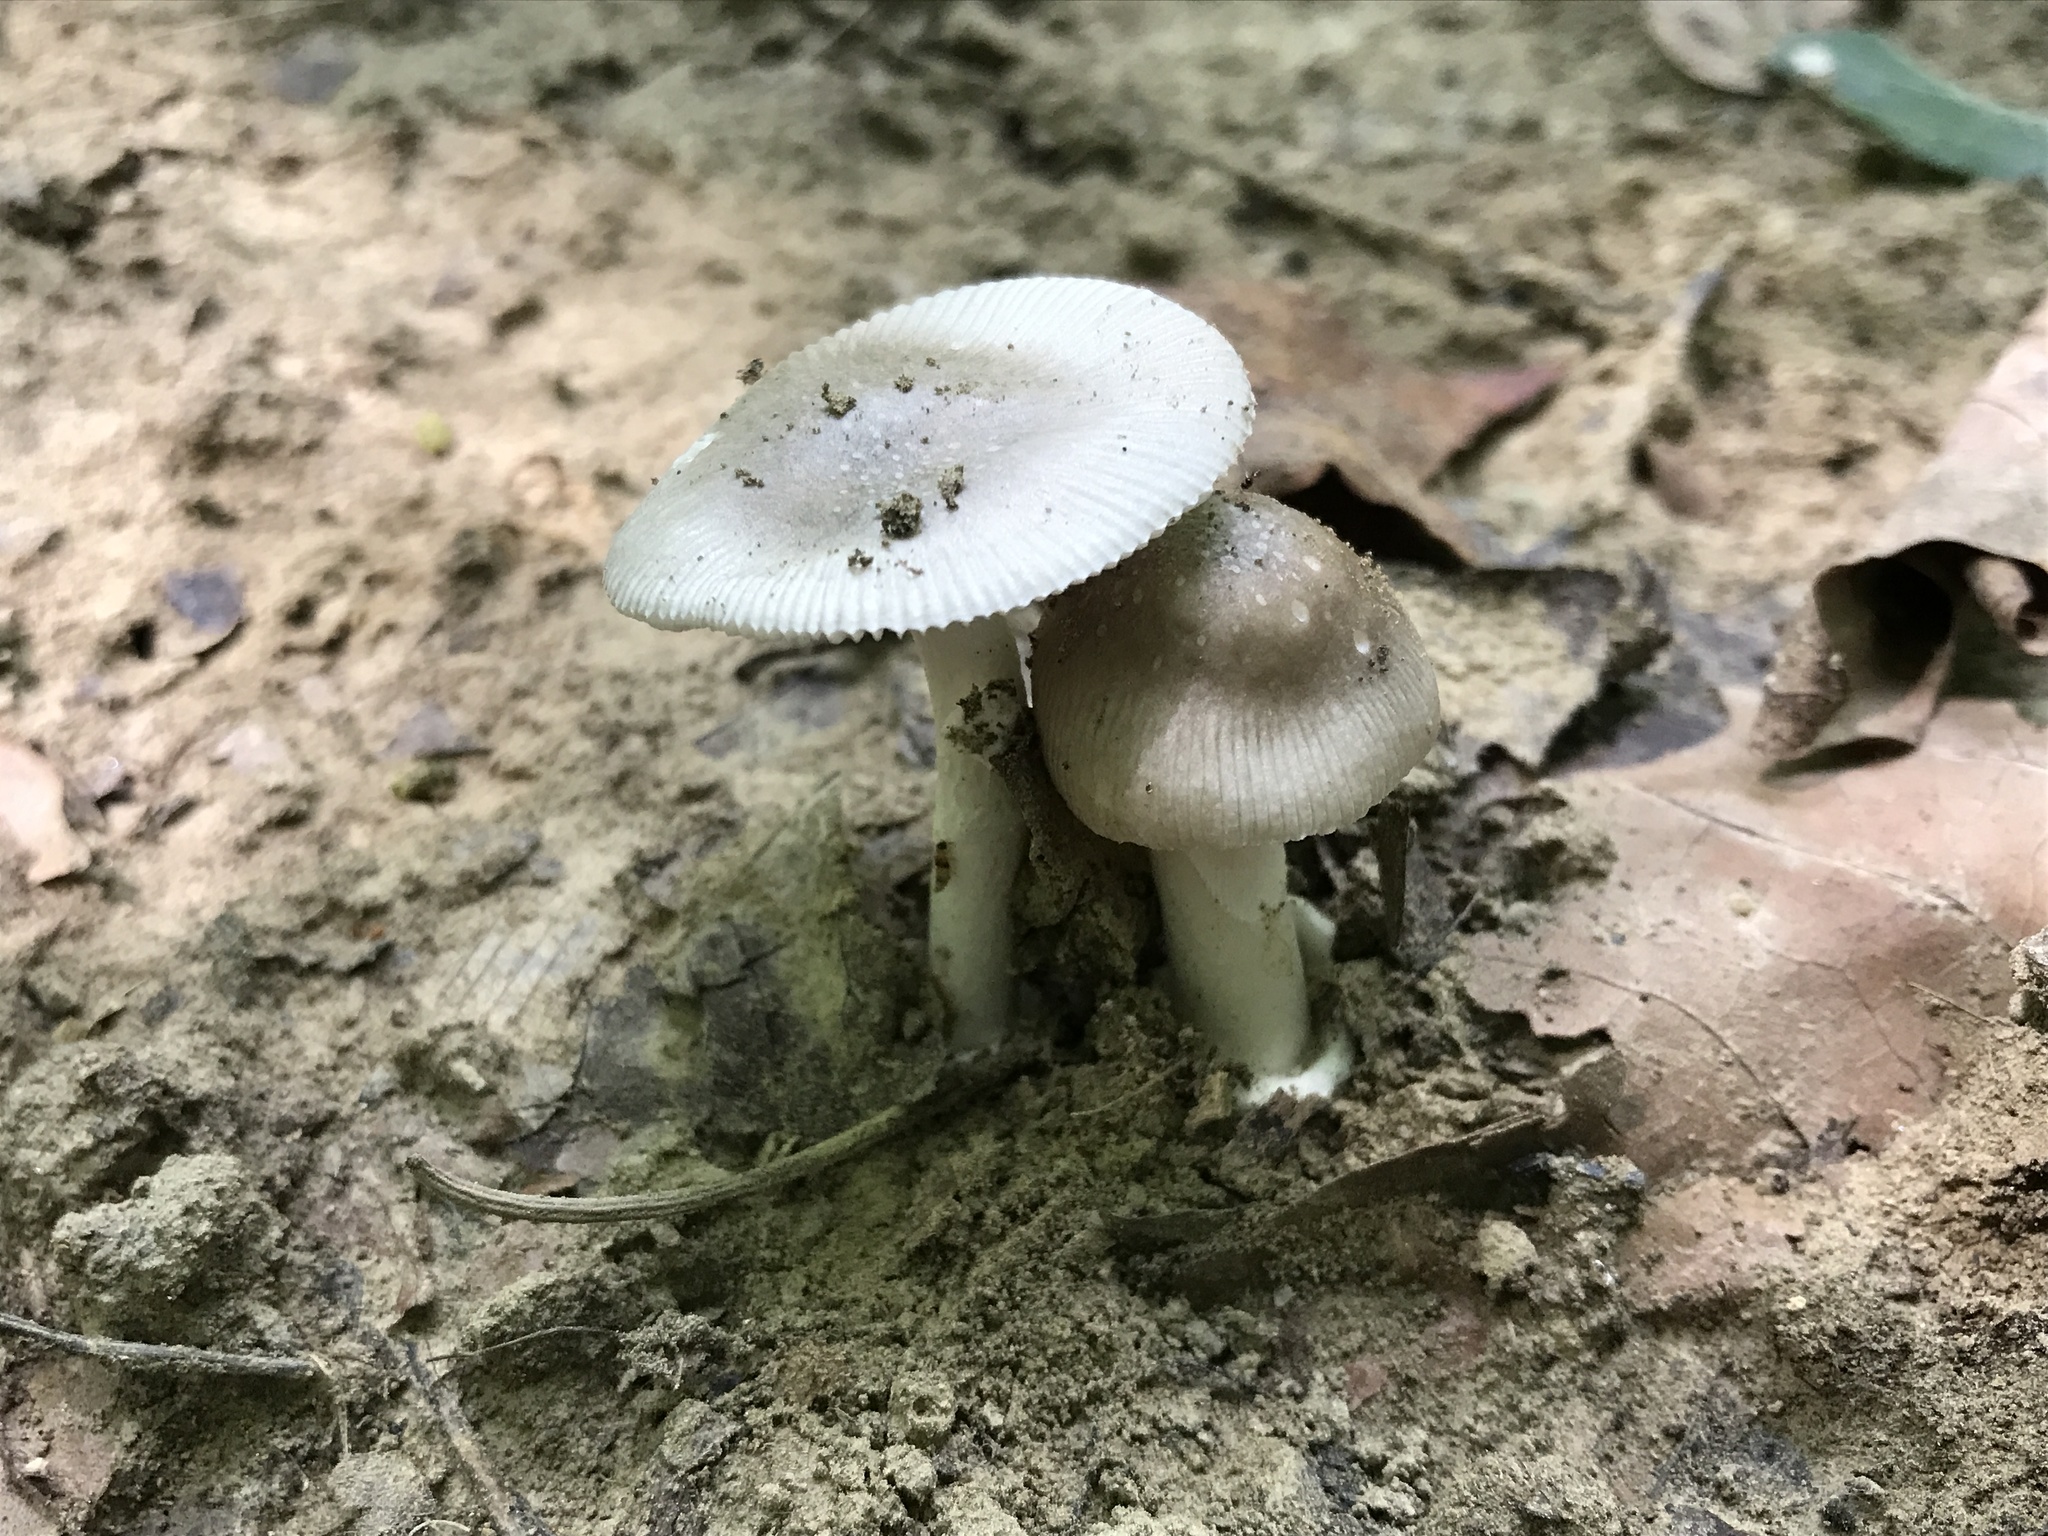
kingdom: Fungi
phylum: Basidiomycota
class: Agaricomycetes
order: Agaricales
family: Amanitaceae
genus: Amanita
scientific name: Amanita spreta
